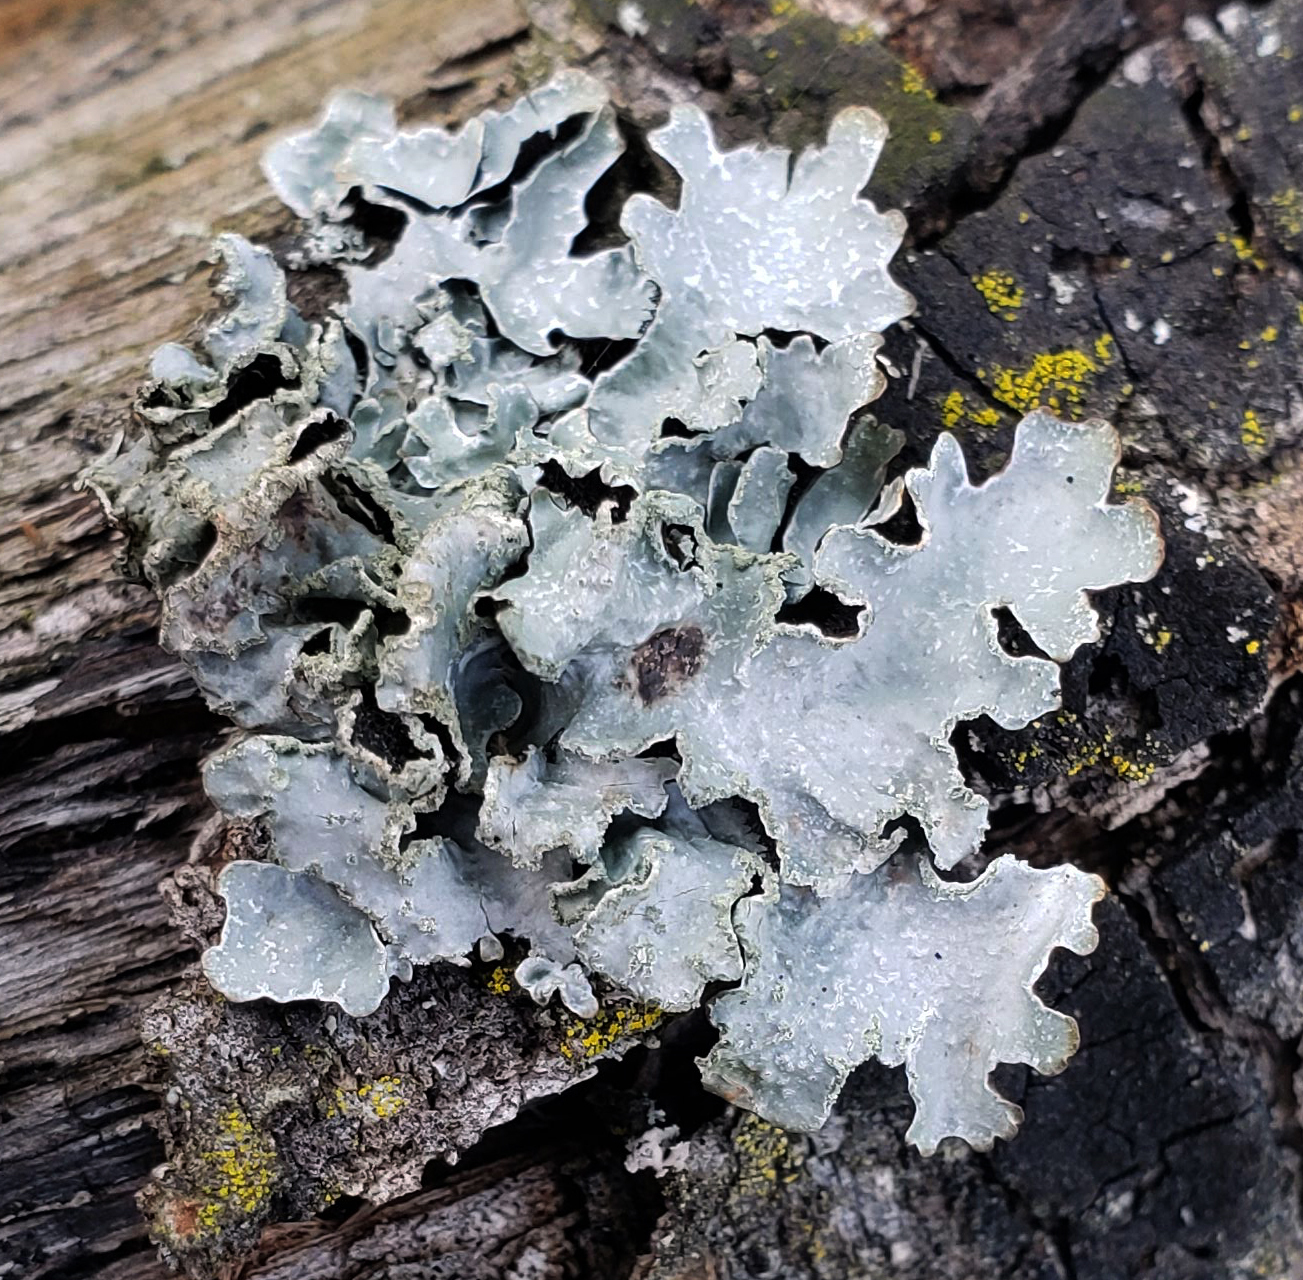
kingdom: Fungi
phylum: Ascomycota
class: Lecanoromycetes
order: Lecanorales
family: Parmeliaceae
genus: Parmelia
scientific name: Parmelia sulcata
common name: Netted shield lichen
